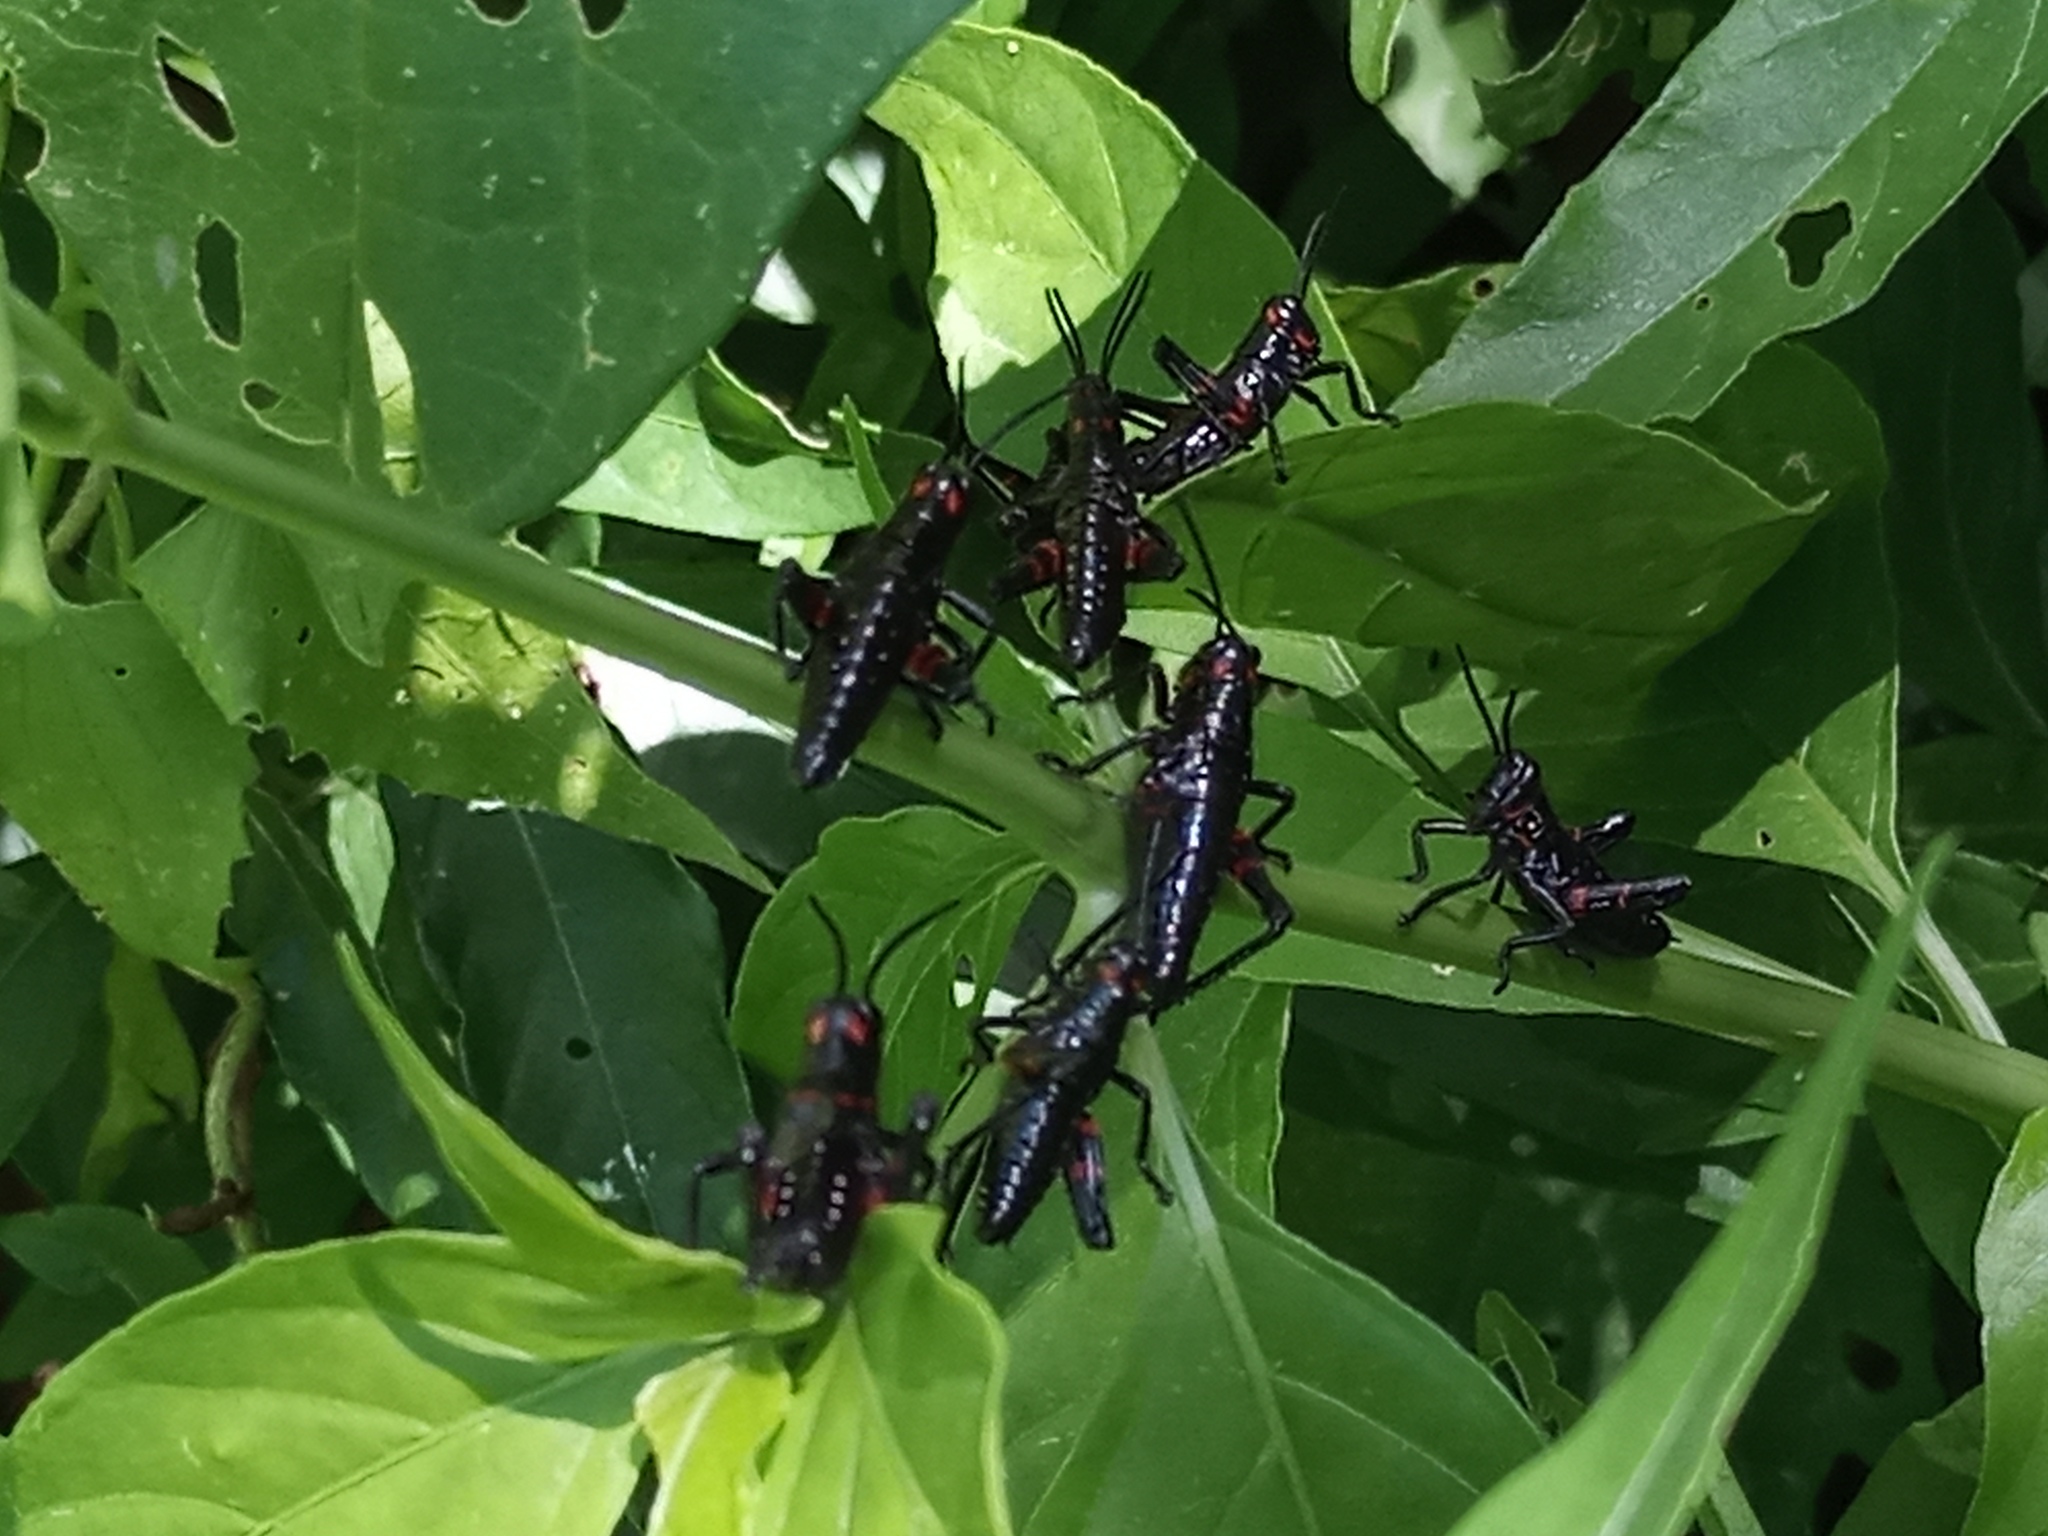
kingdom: Animalia
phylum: Arthropoda
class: Insecta
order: Orthoptera
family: Romaleidae
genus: Chromacris
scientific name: Chromacris speciosa
